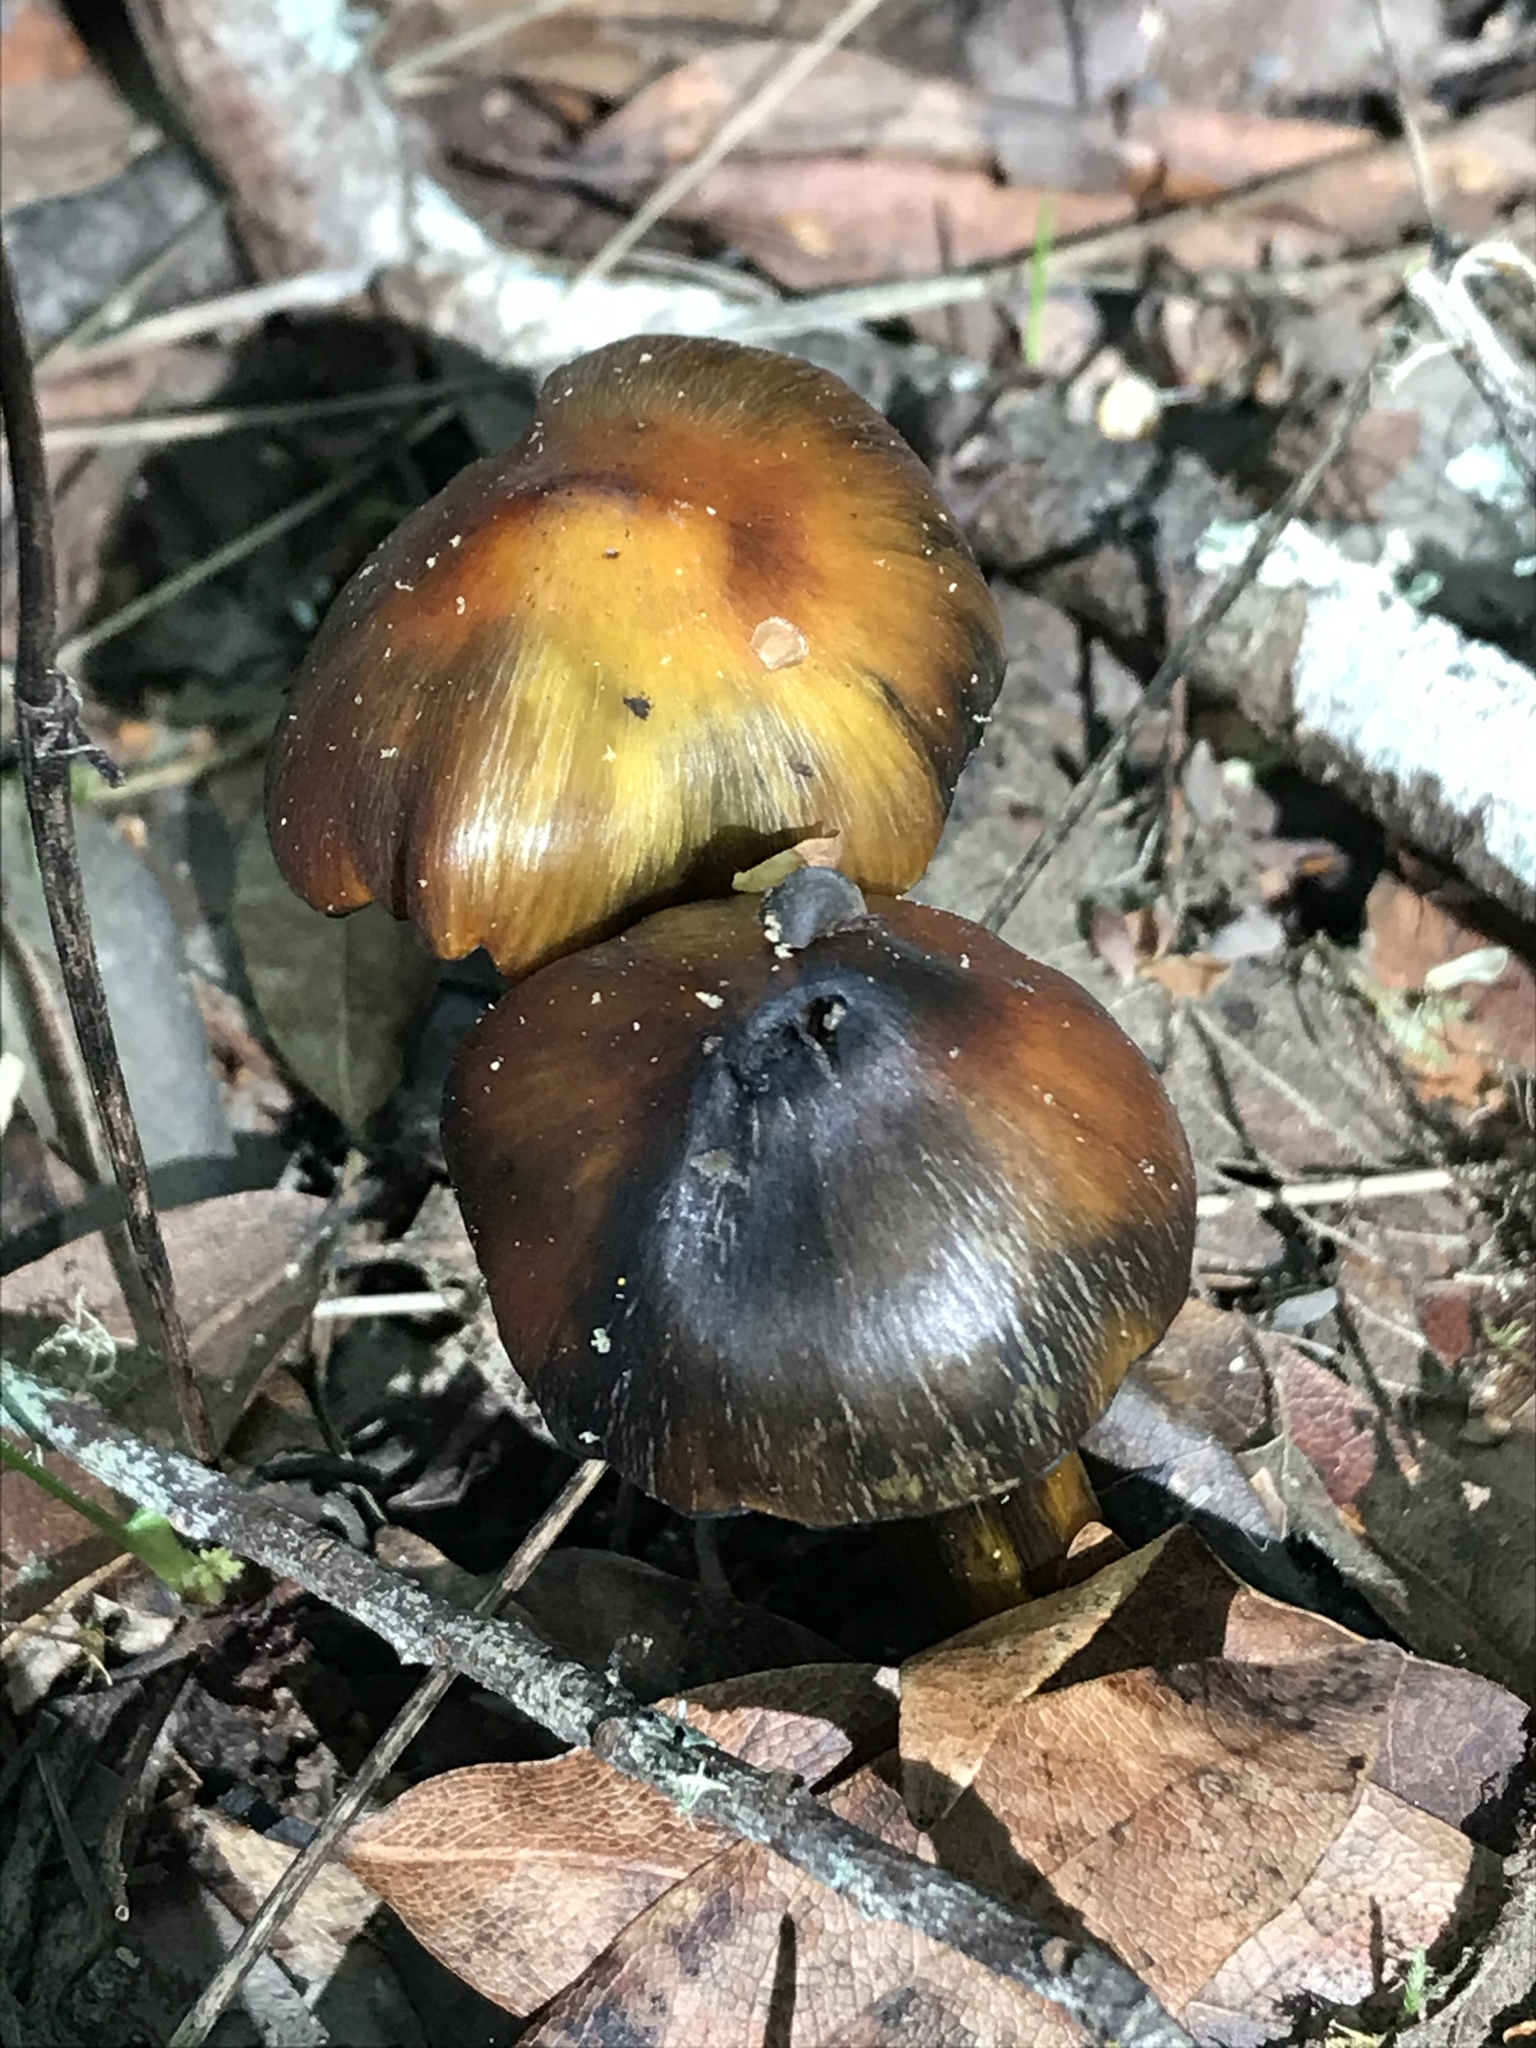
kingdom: Fungi
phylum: Basidiomycota
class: Agaricomycetes
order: Agaricales
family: Hygrophoraceae
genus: Hygrocybe
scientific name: Hygrocybe singeri
